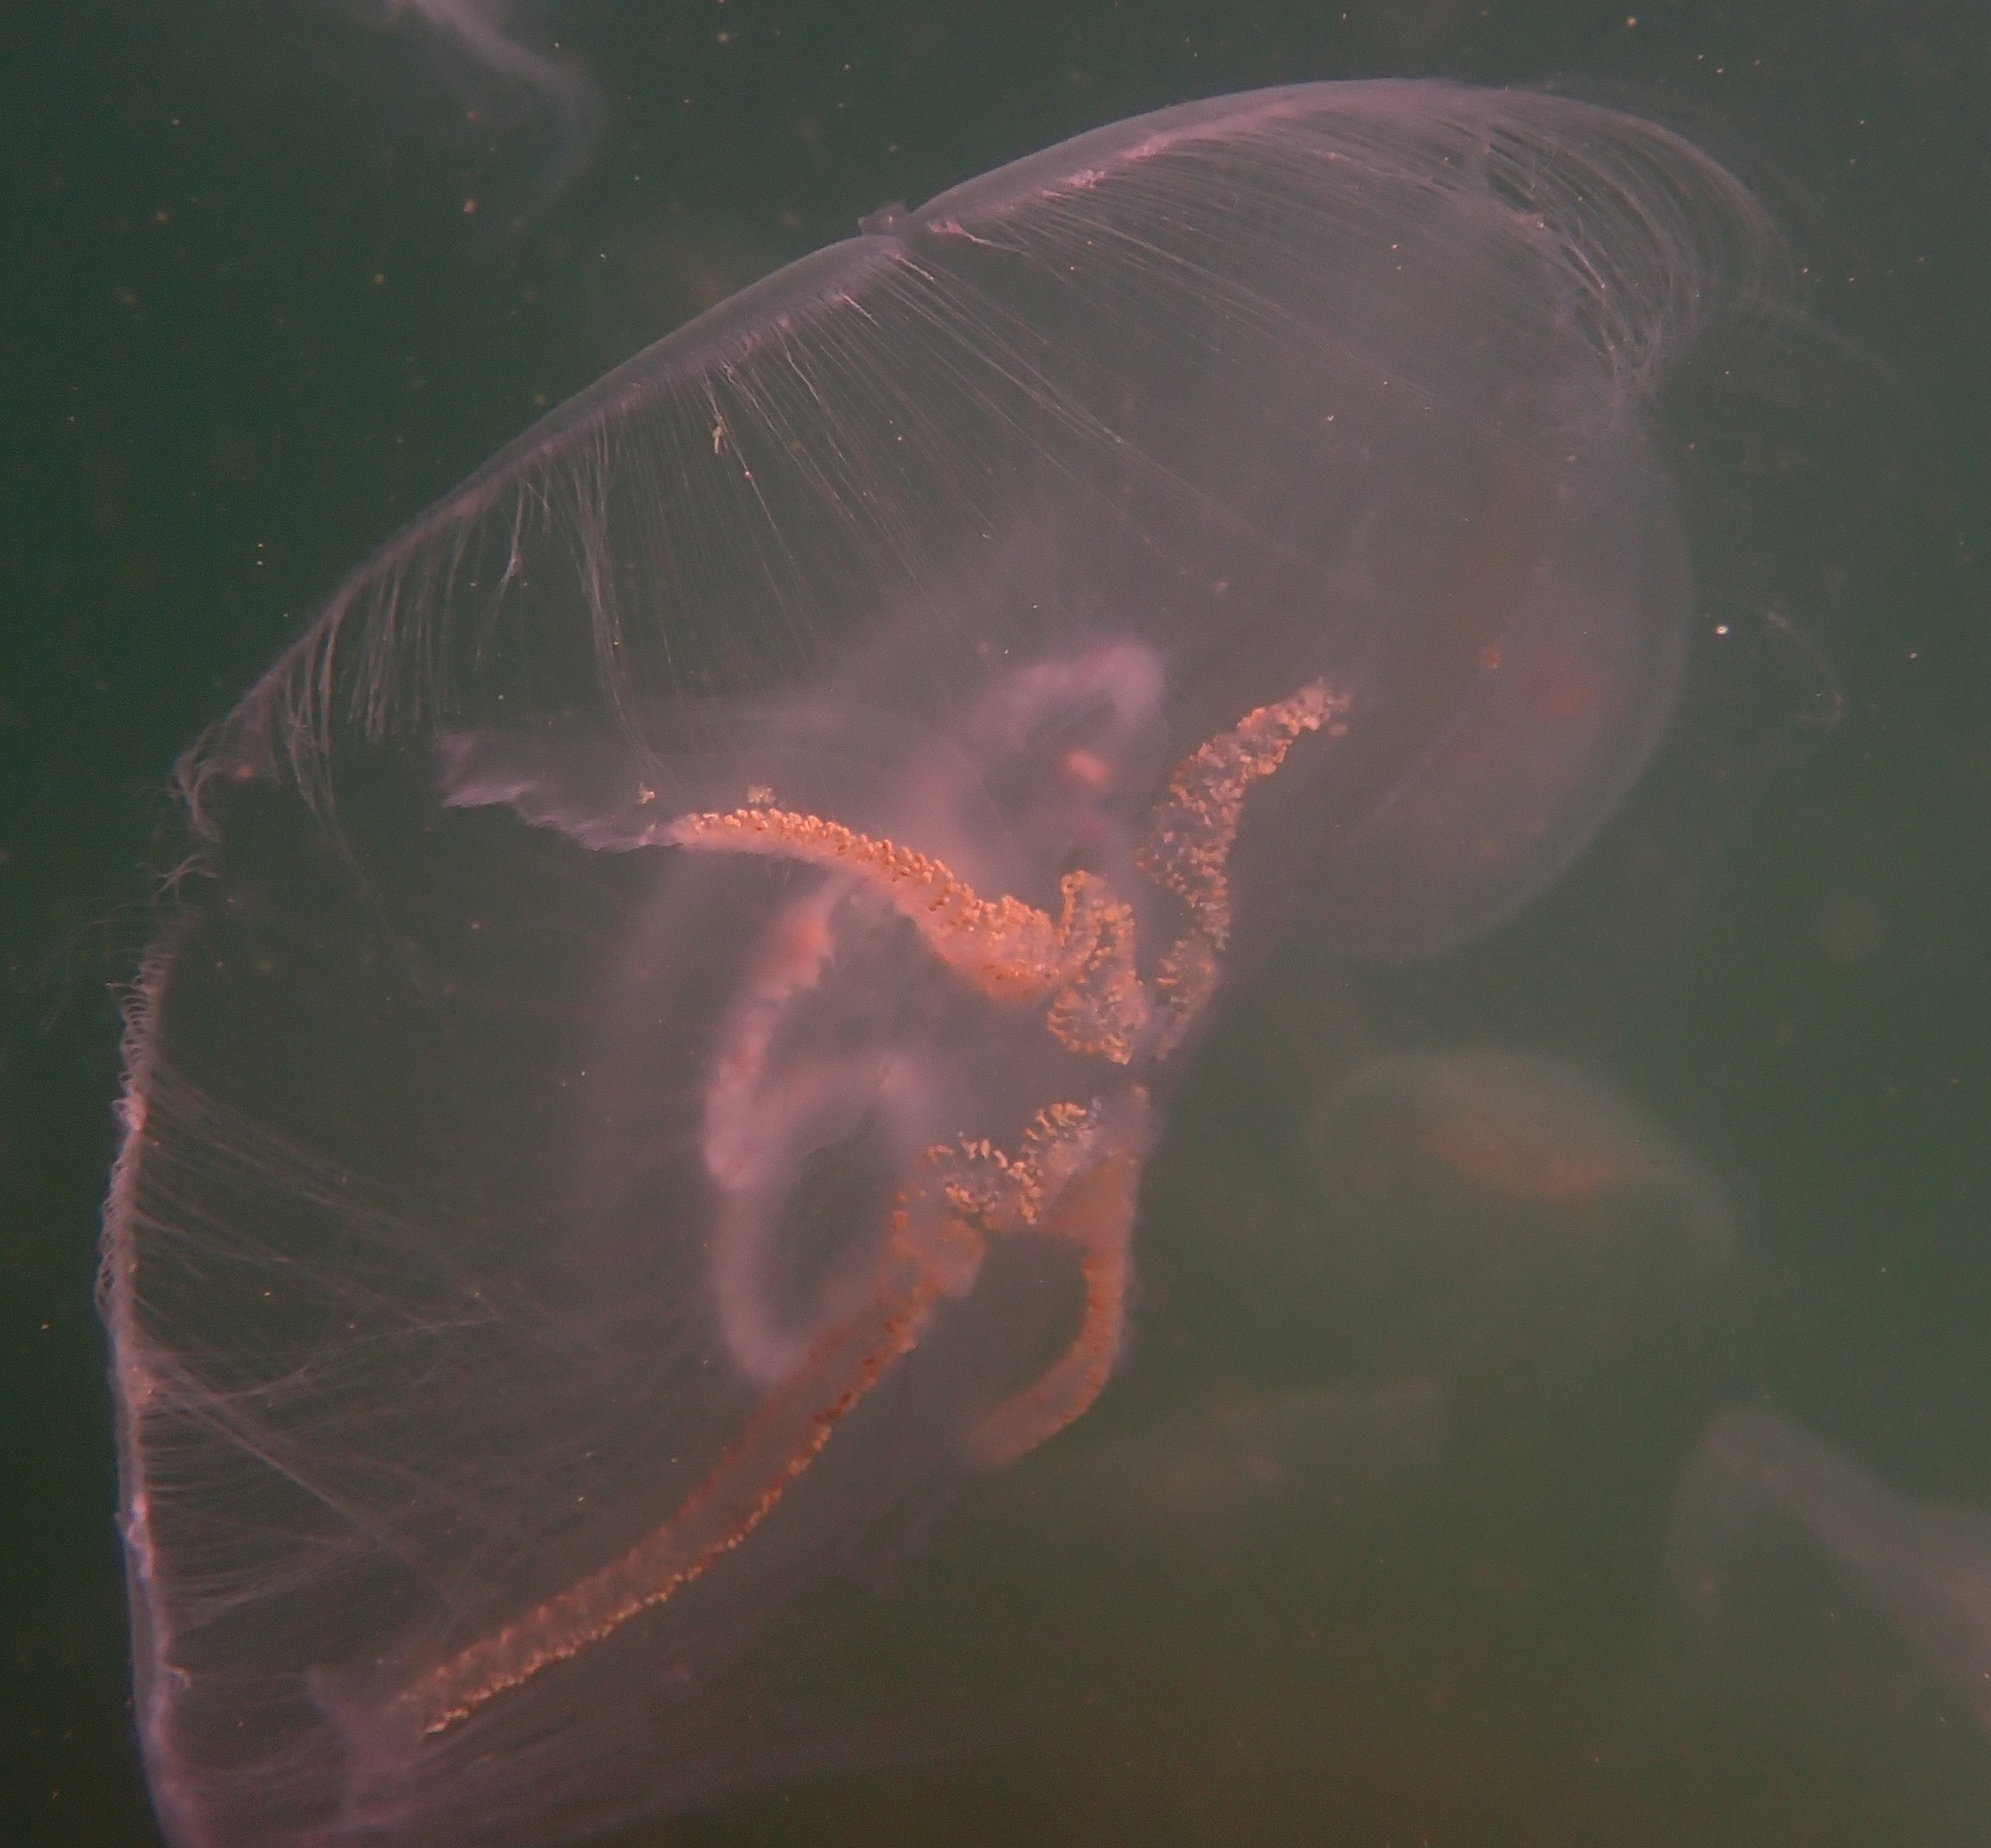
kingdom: Animalia
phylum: Cnidaria
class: Scyphozoa
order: Semaeostomeae
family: Ulmaridae
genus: Aurelia
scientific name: Aurelia aurita
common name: Moon jellyfish
